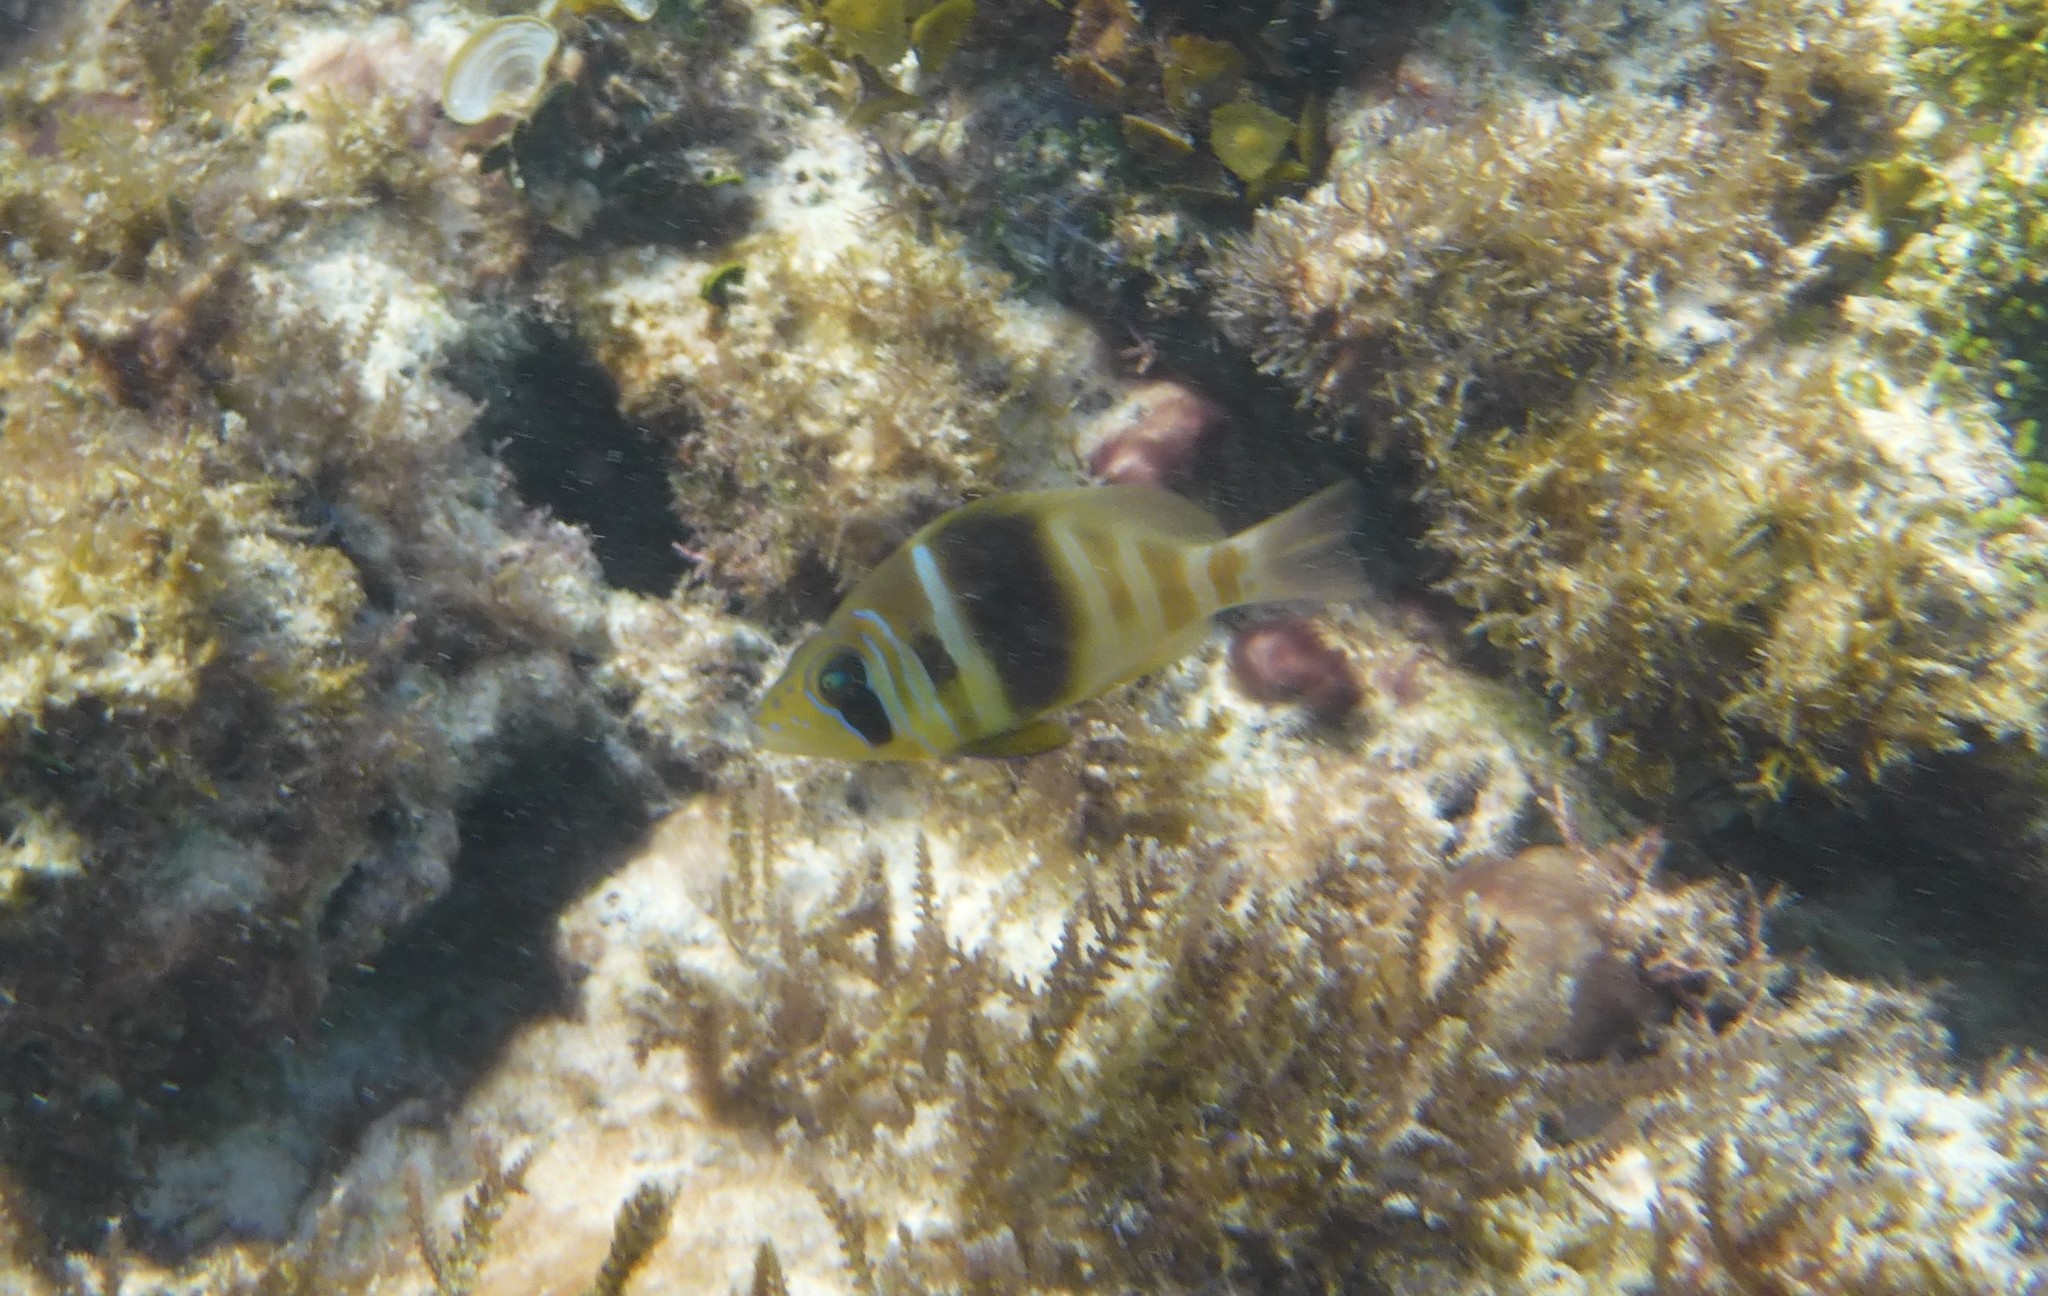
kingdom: Animalia
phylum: Chordata
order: Perciformes
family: Serranidae
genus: Hypoplectrus
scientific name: Hypoplectrus puella
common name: Barred hamlet
